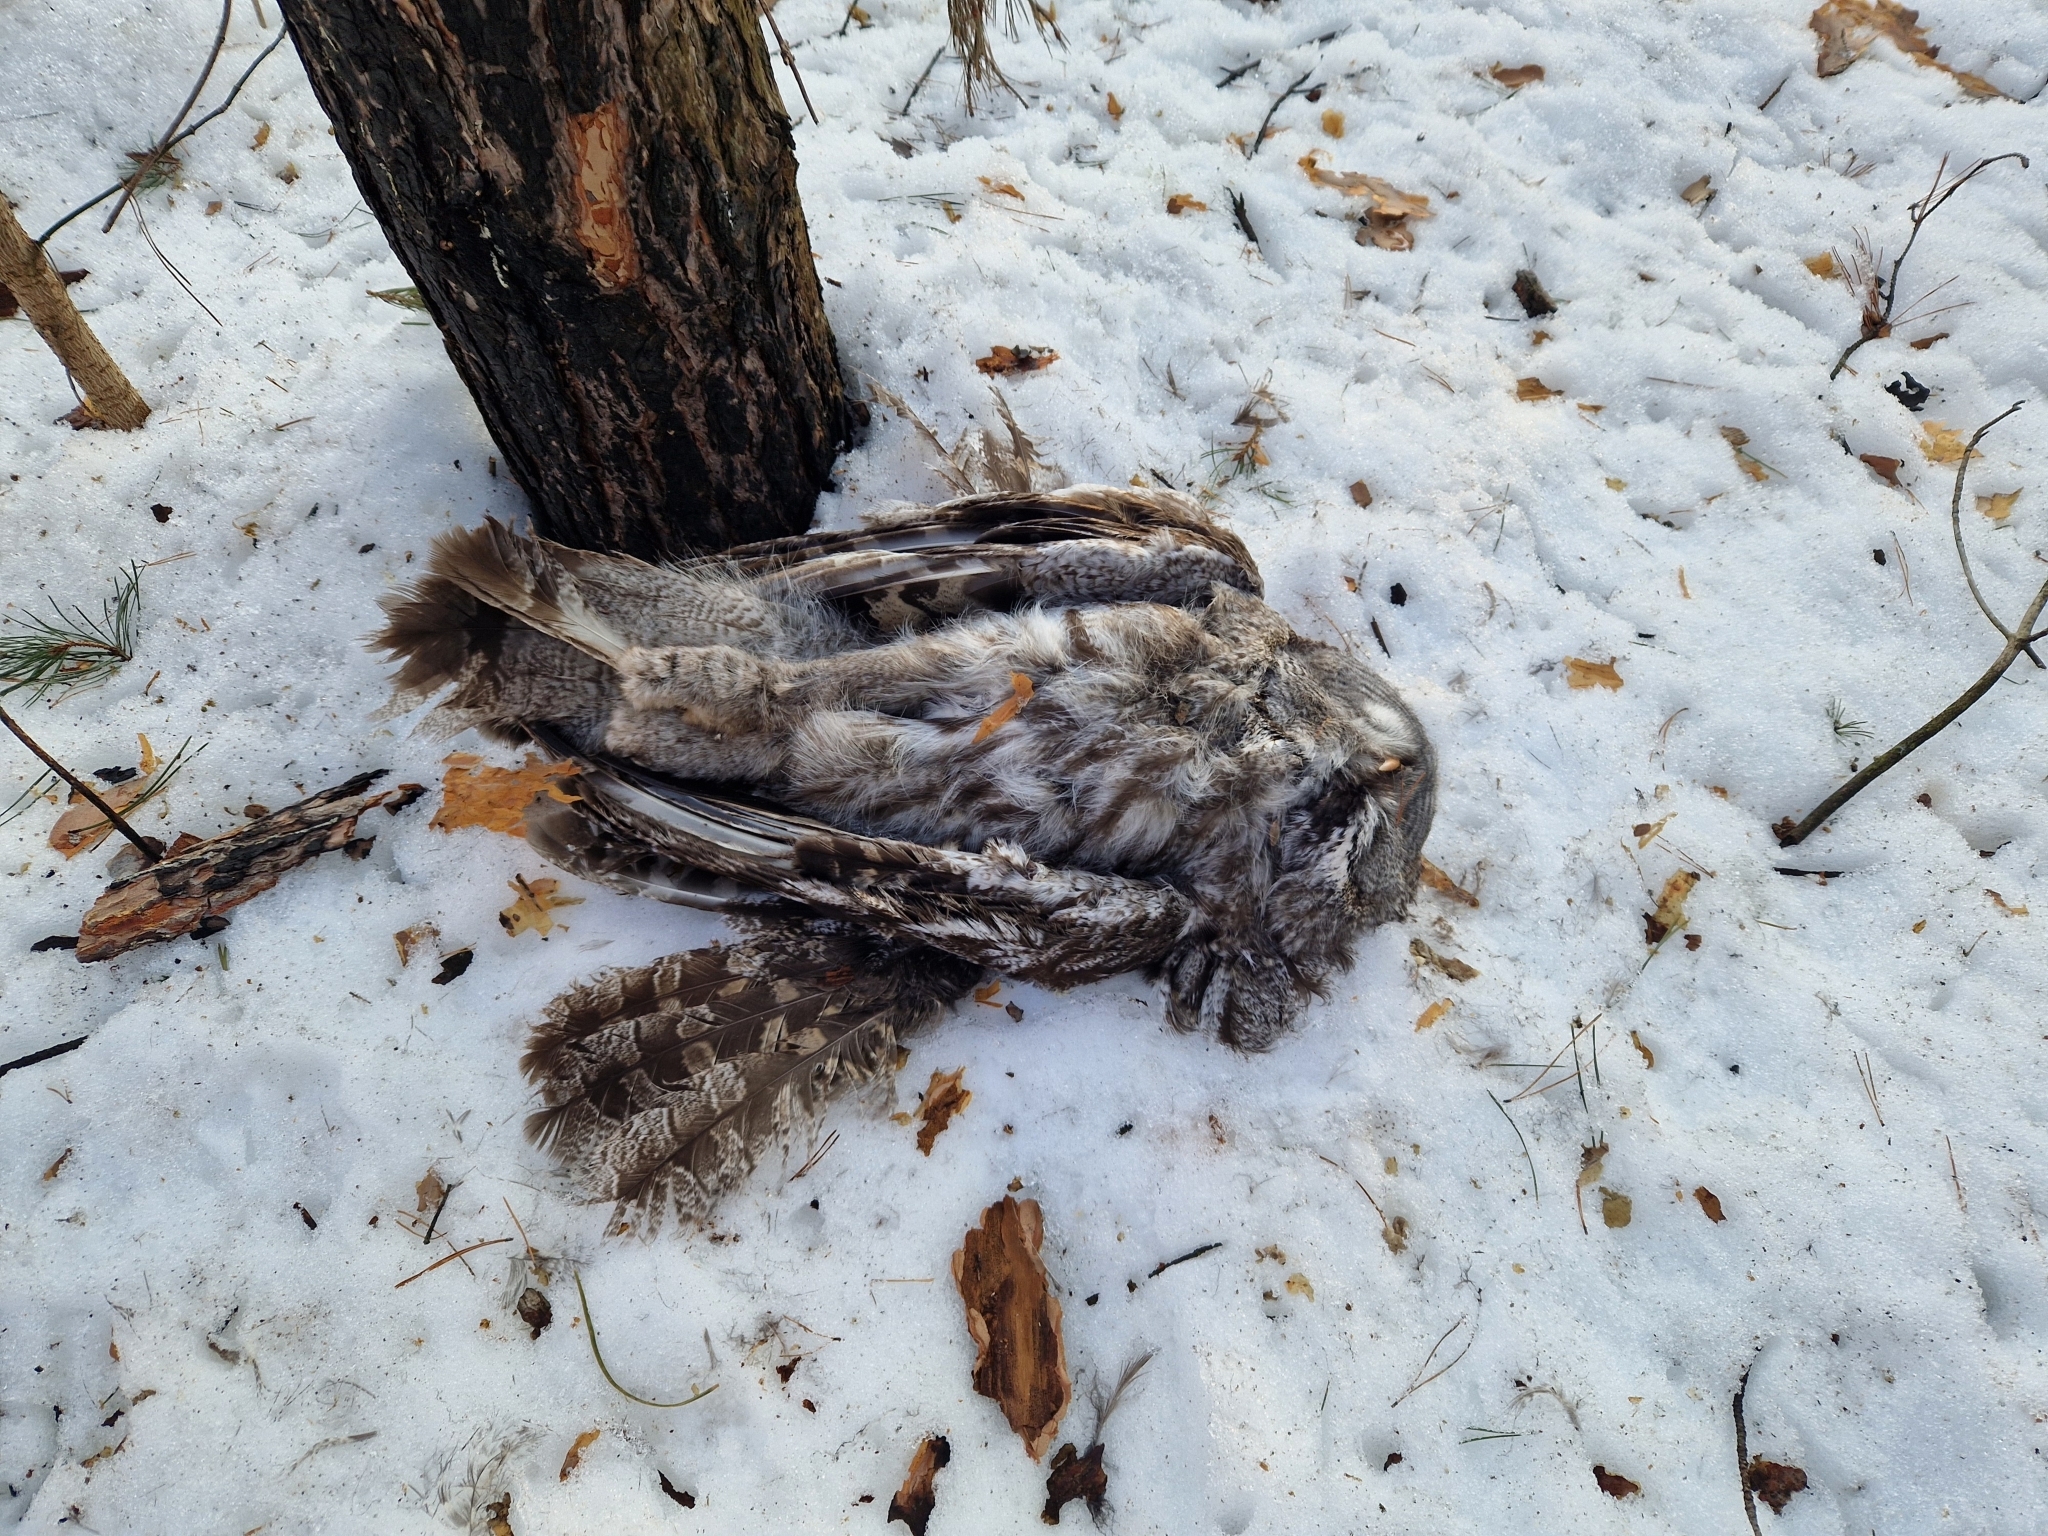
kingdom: Animalia
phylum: Chordata
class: Aves
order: Strigiformes
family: Strigidae
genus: Strix
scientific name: Strix nebulosa
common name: Great grey owl
